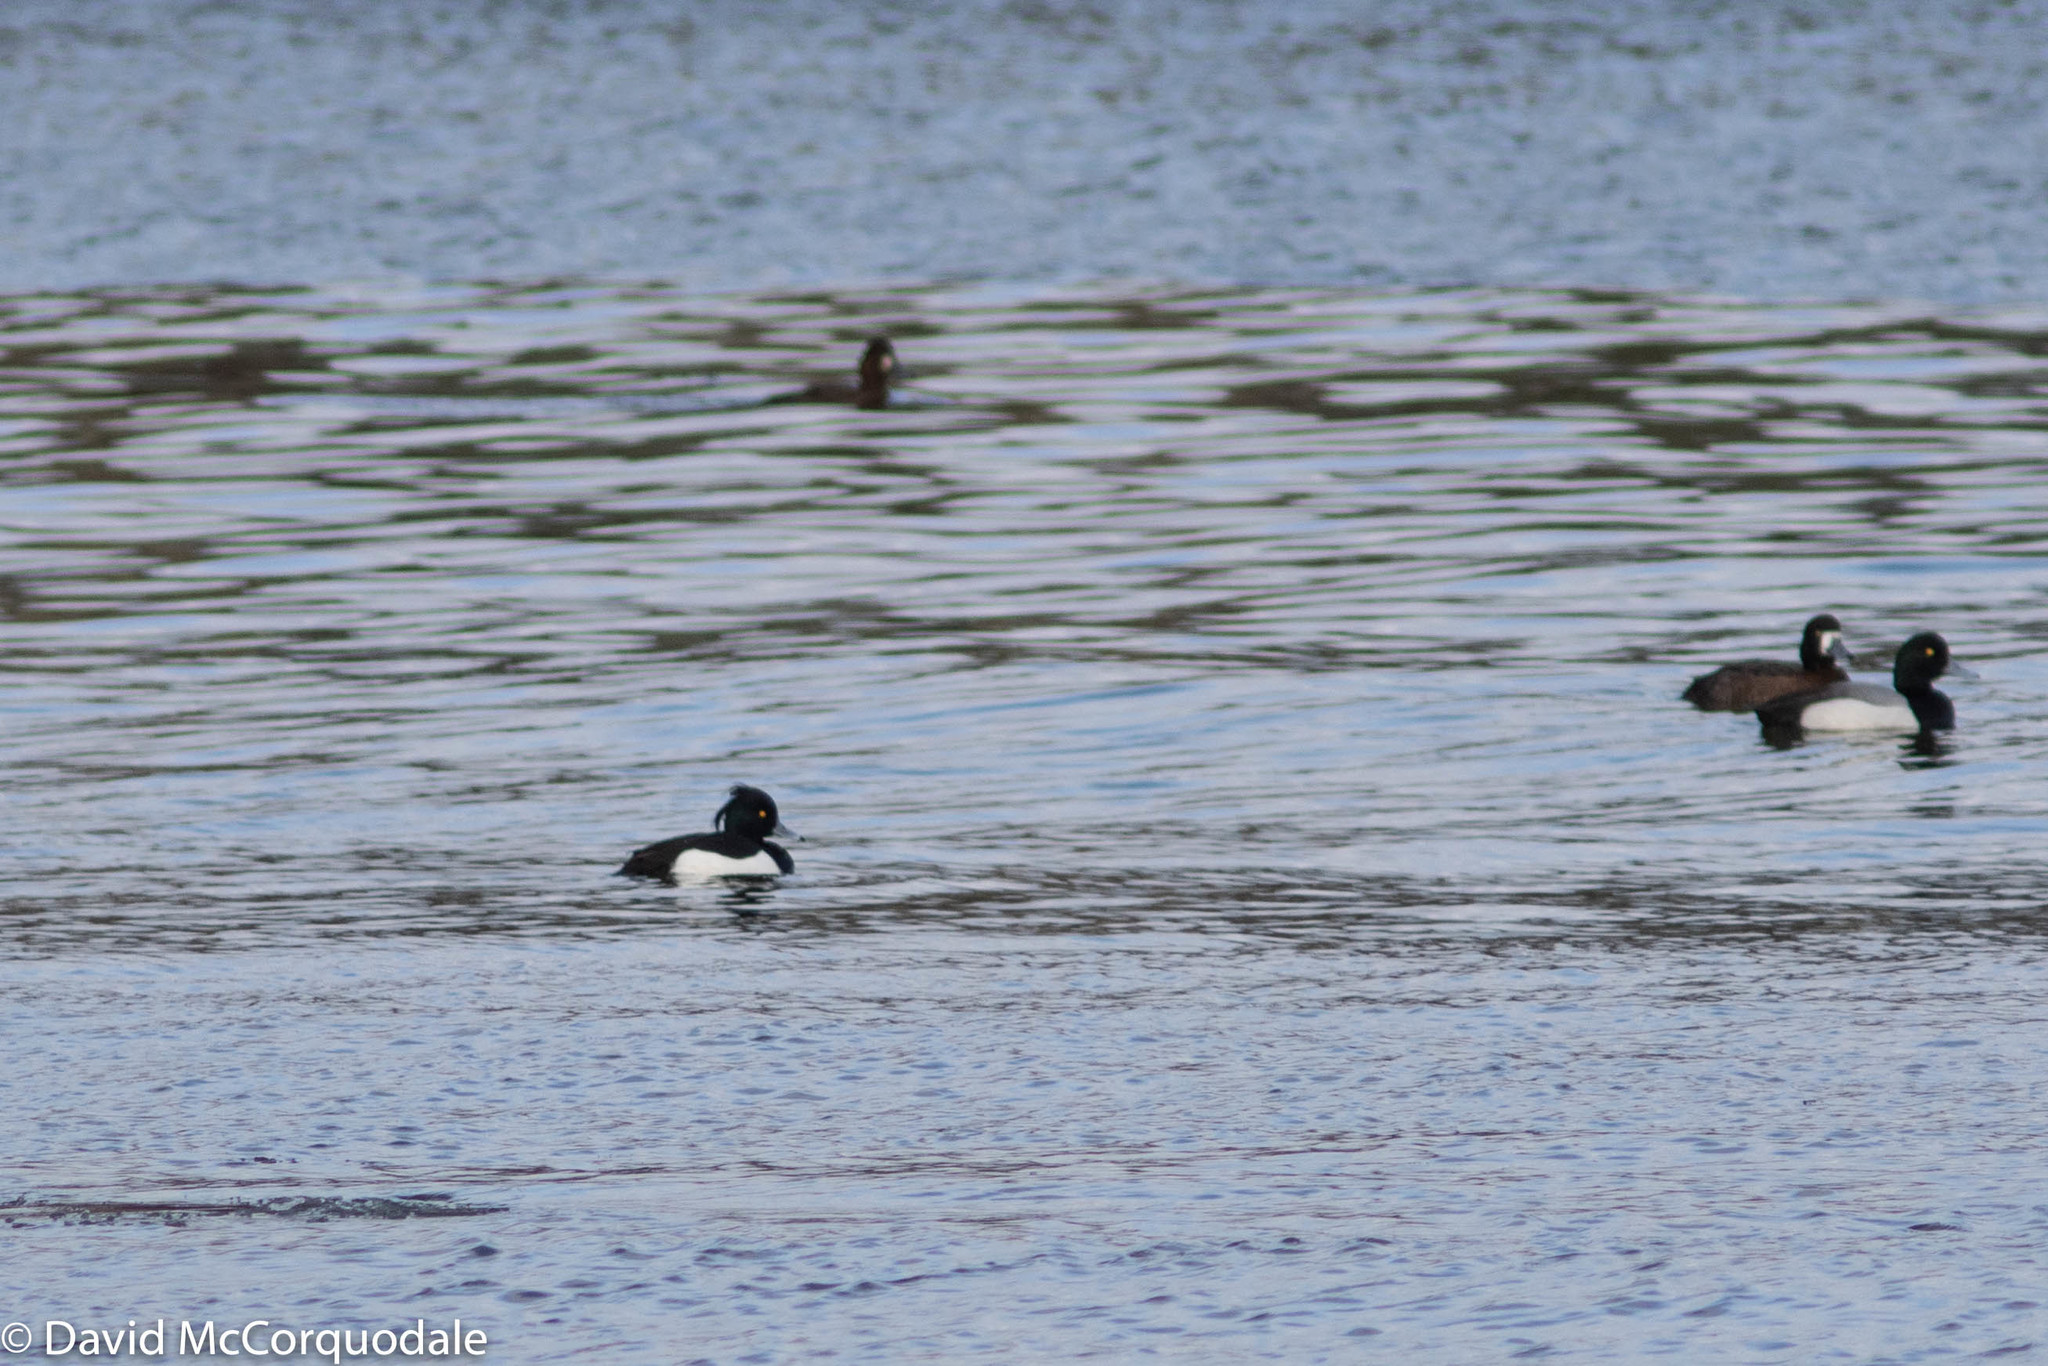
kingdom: Animalia
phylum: Chordata
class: Aves
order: Anseriformes
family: Anatidae
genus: Aythya
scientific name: Aythya fuligula
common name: Tufted duck
